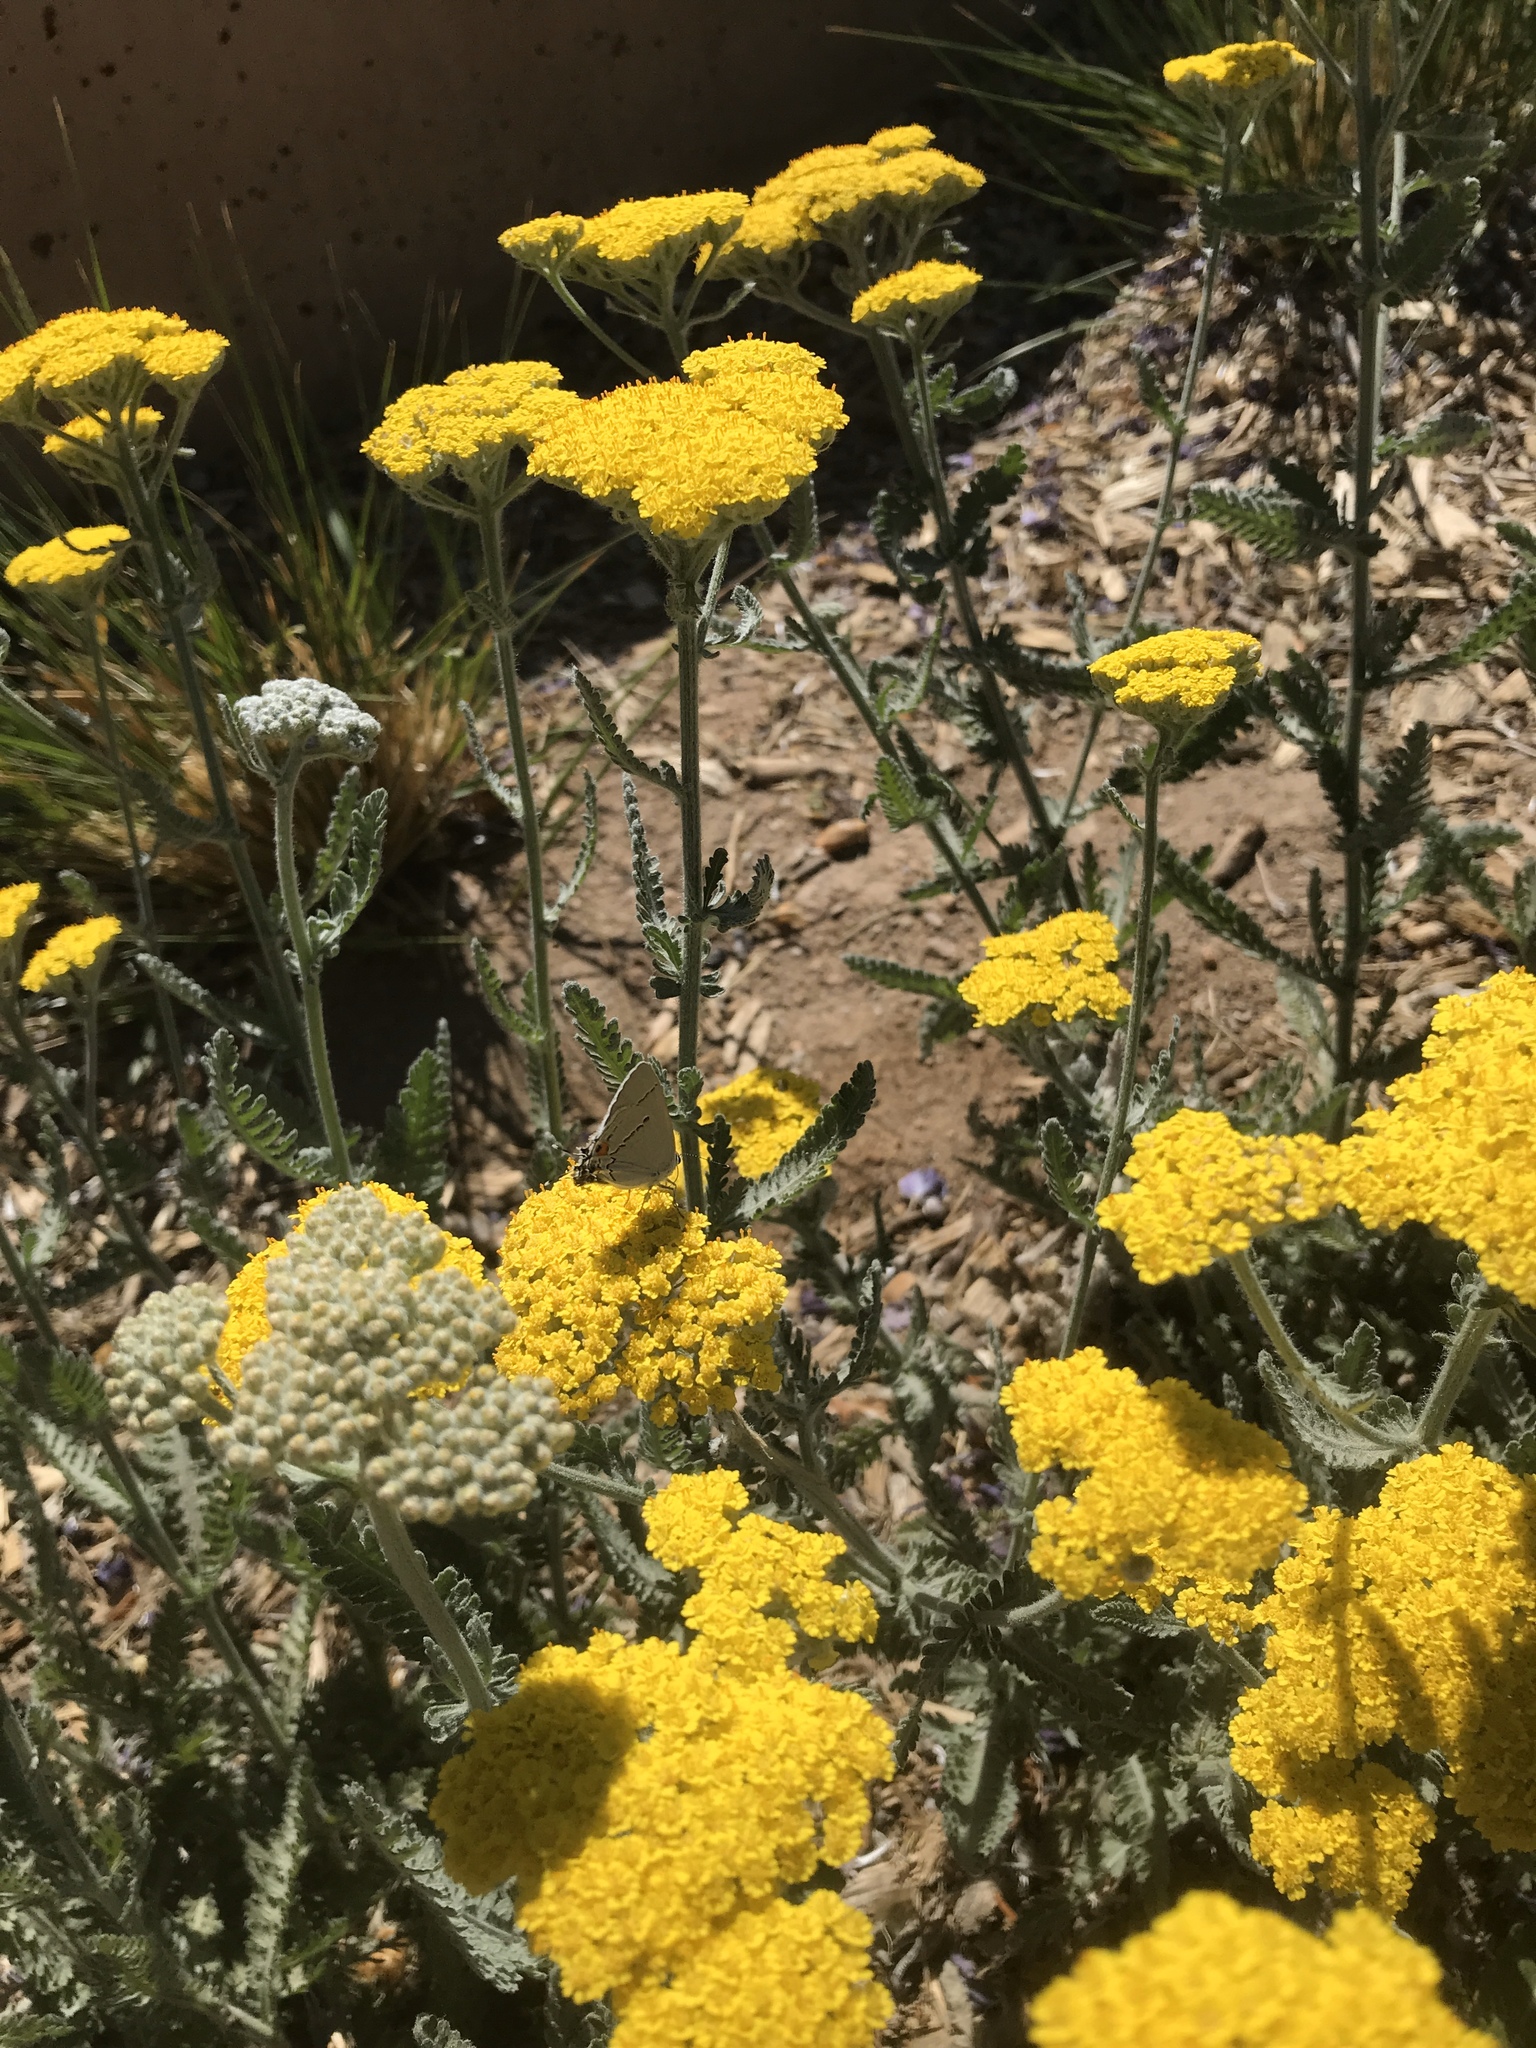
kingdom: Animalia
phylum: Arthropoda
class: Insecta
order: Lepidoptera
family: Lycaenidae
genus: Strymon
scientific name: Strymon melinus
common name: Gray hairstreak
